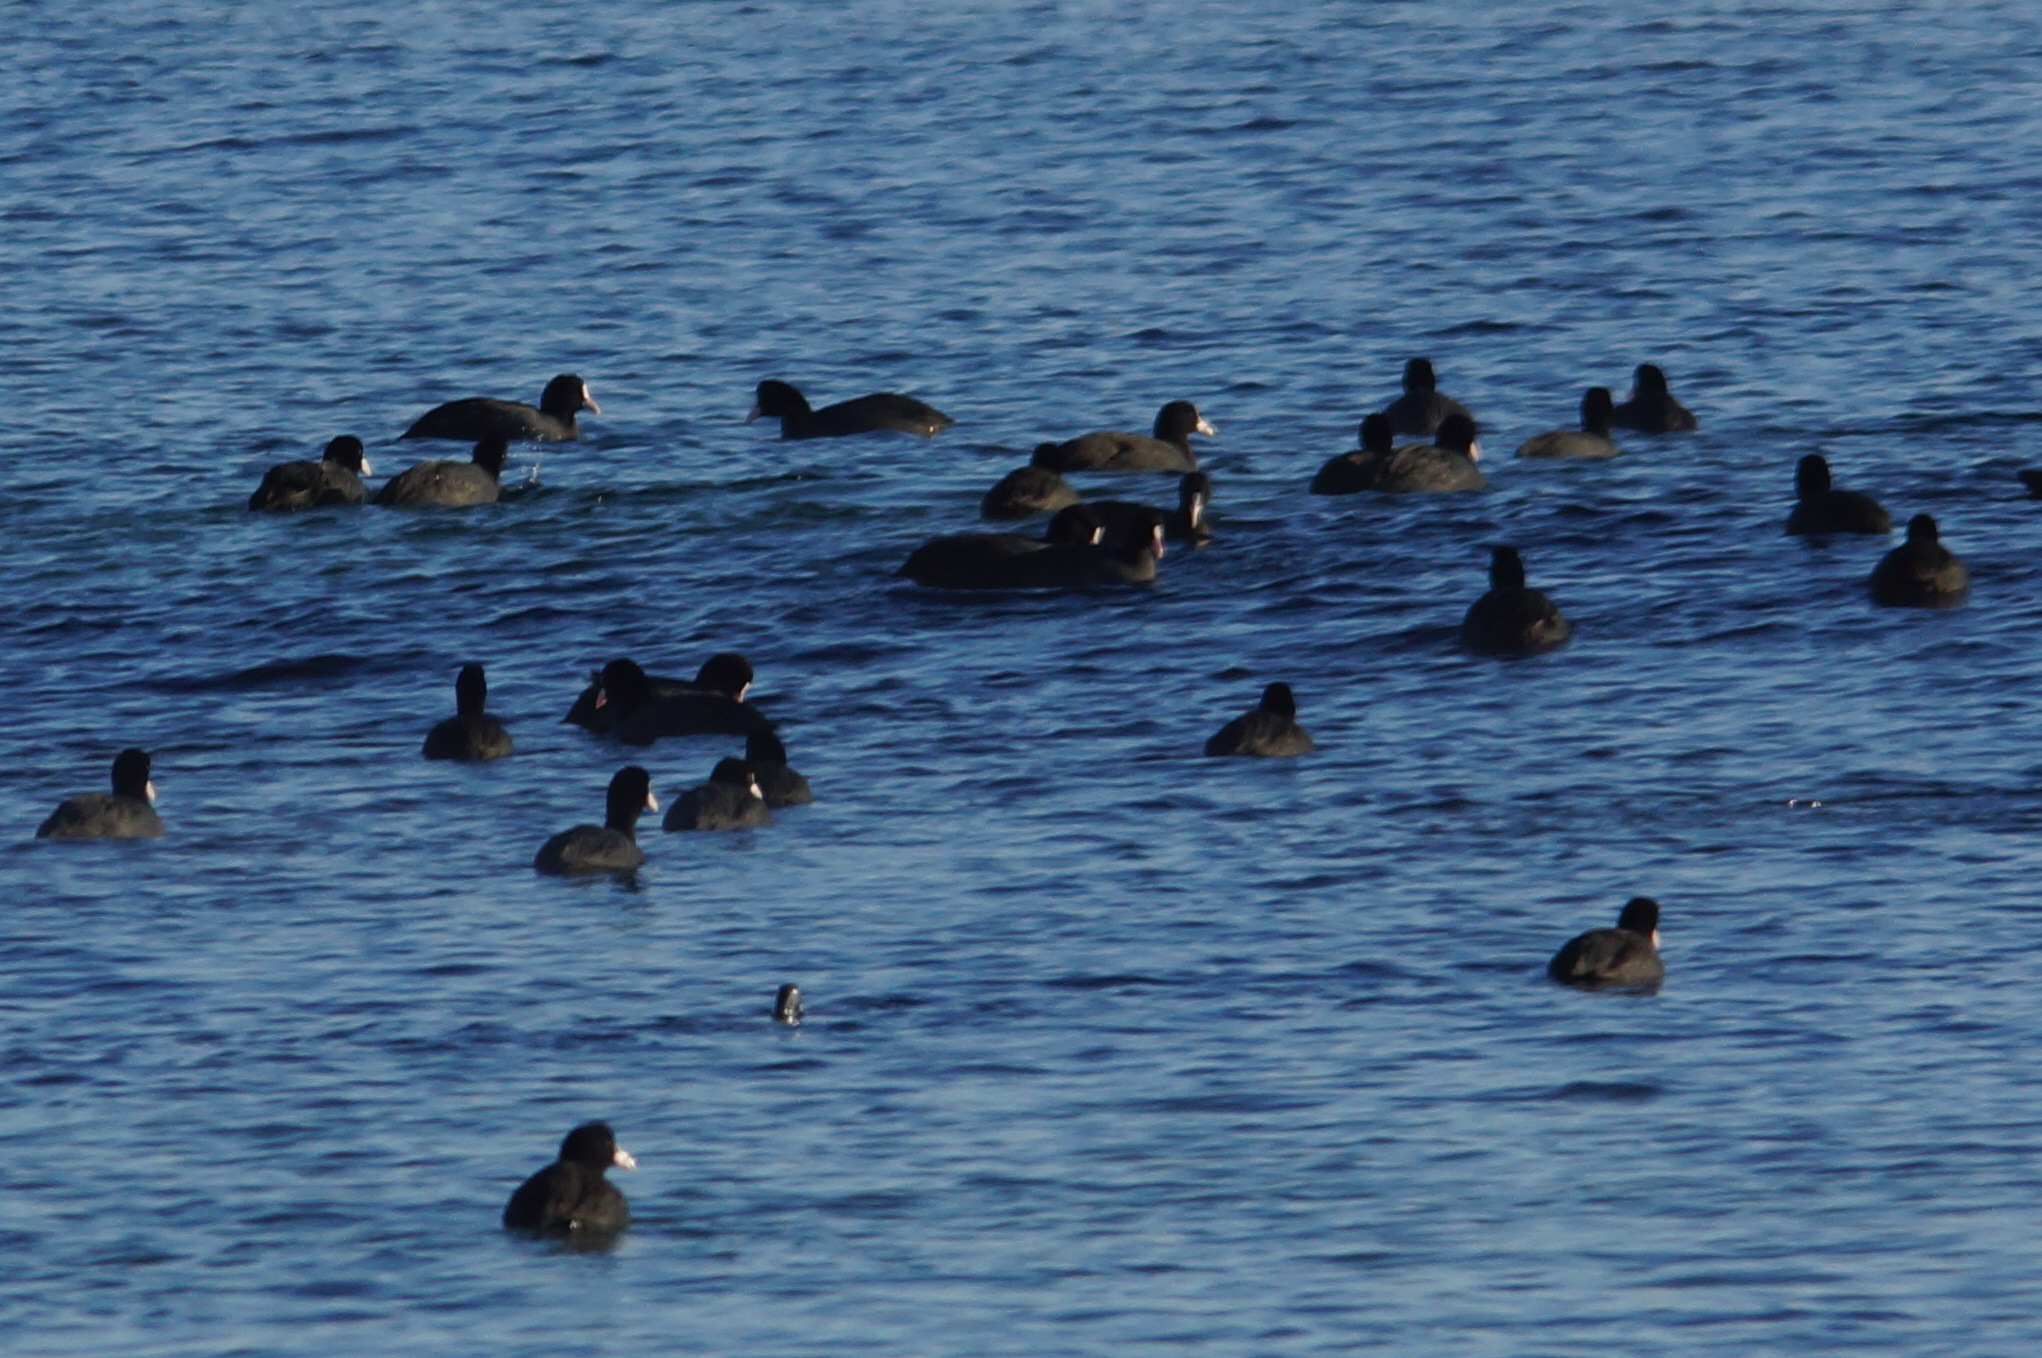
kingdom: Animalia
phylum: Chordata
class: Aves
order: Gruiformes
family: Rallidae
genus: Fulica
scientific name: Fulica atra
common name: Eurasian coot
